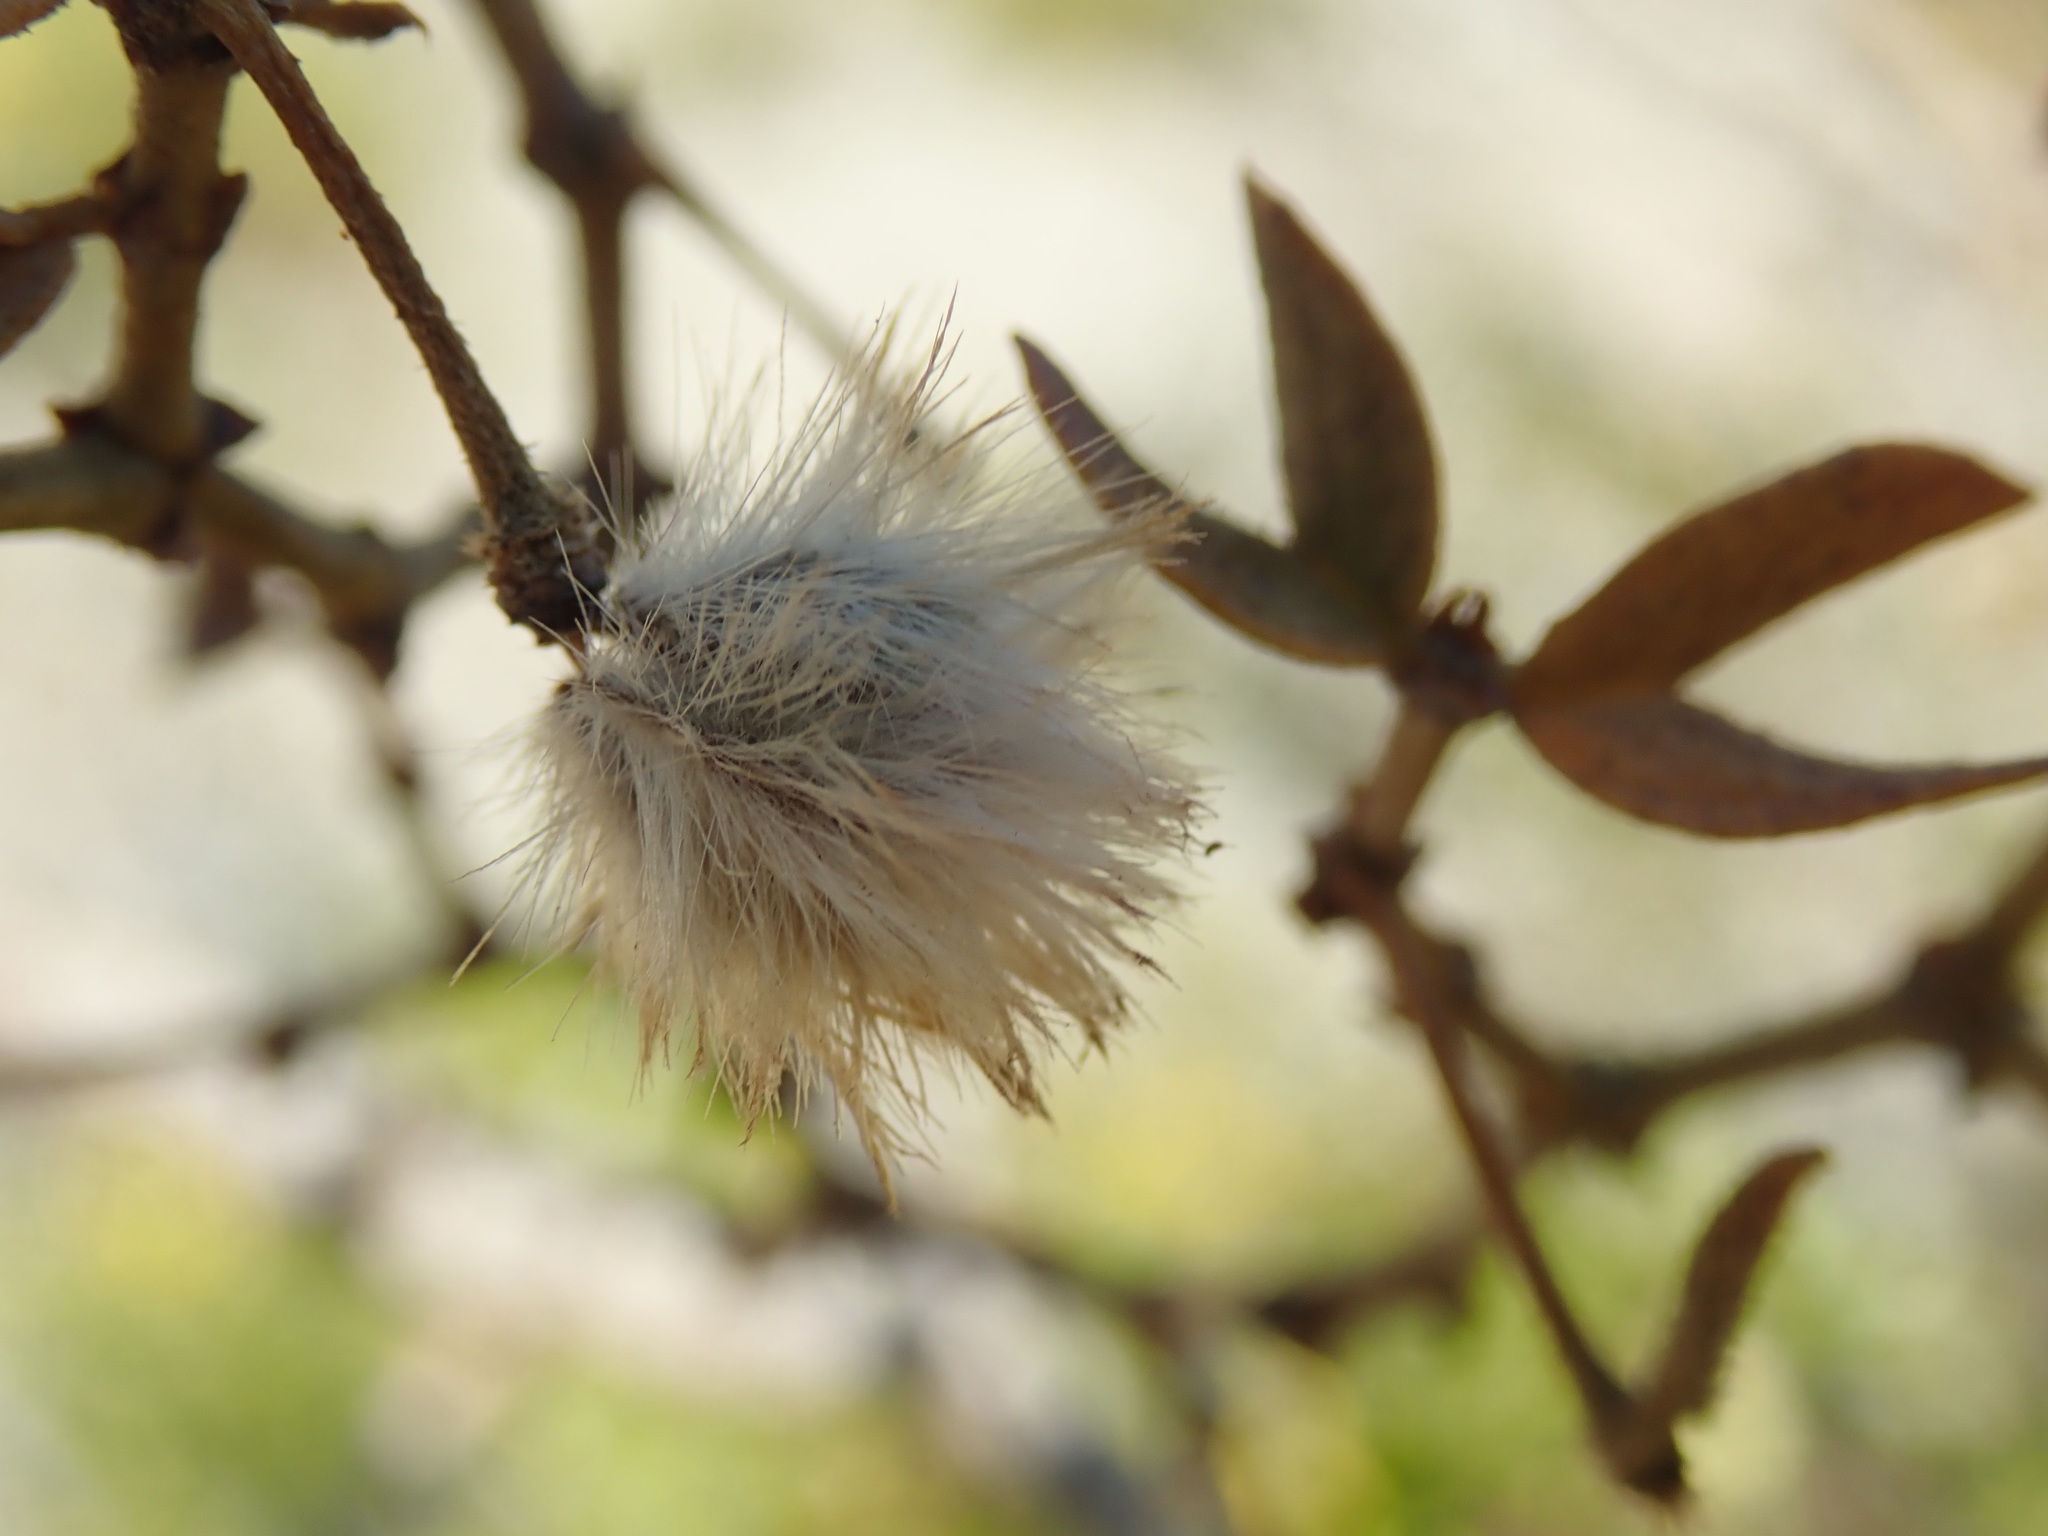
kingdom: Plantae
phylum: Tracheophyta
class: Magnoliopsida
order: Zygophyllales
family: Zygophyllaceae
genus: Larrea
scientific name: Larrea tridentata
